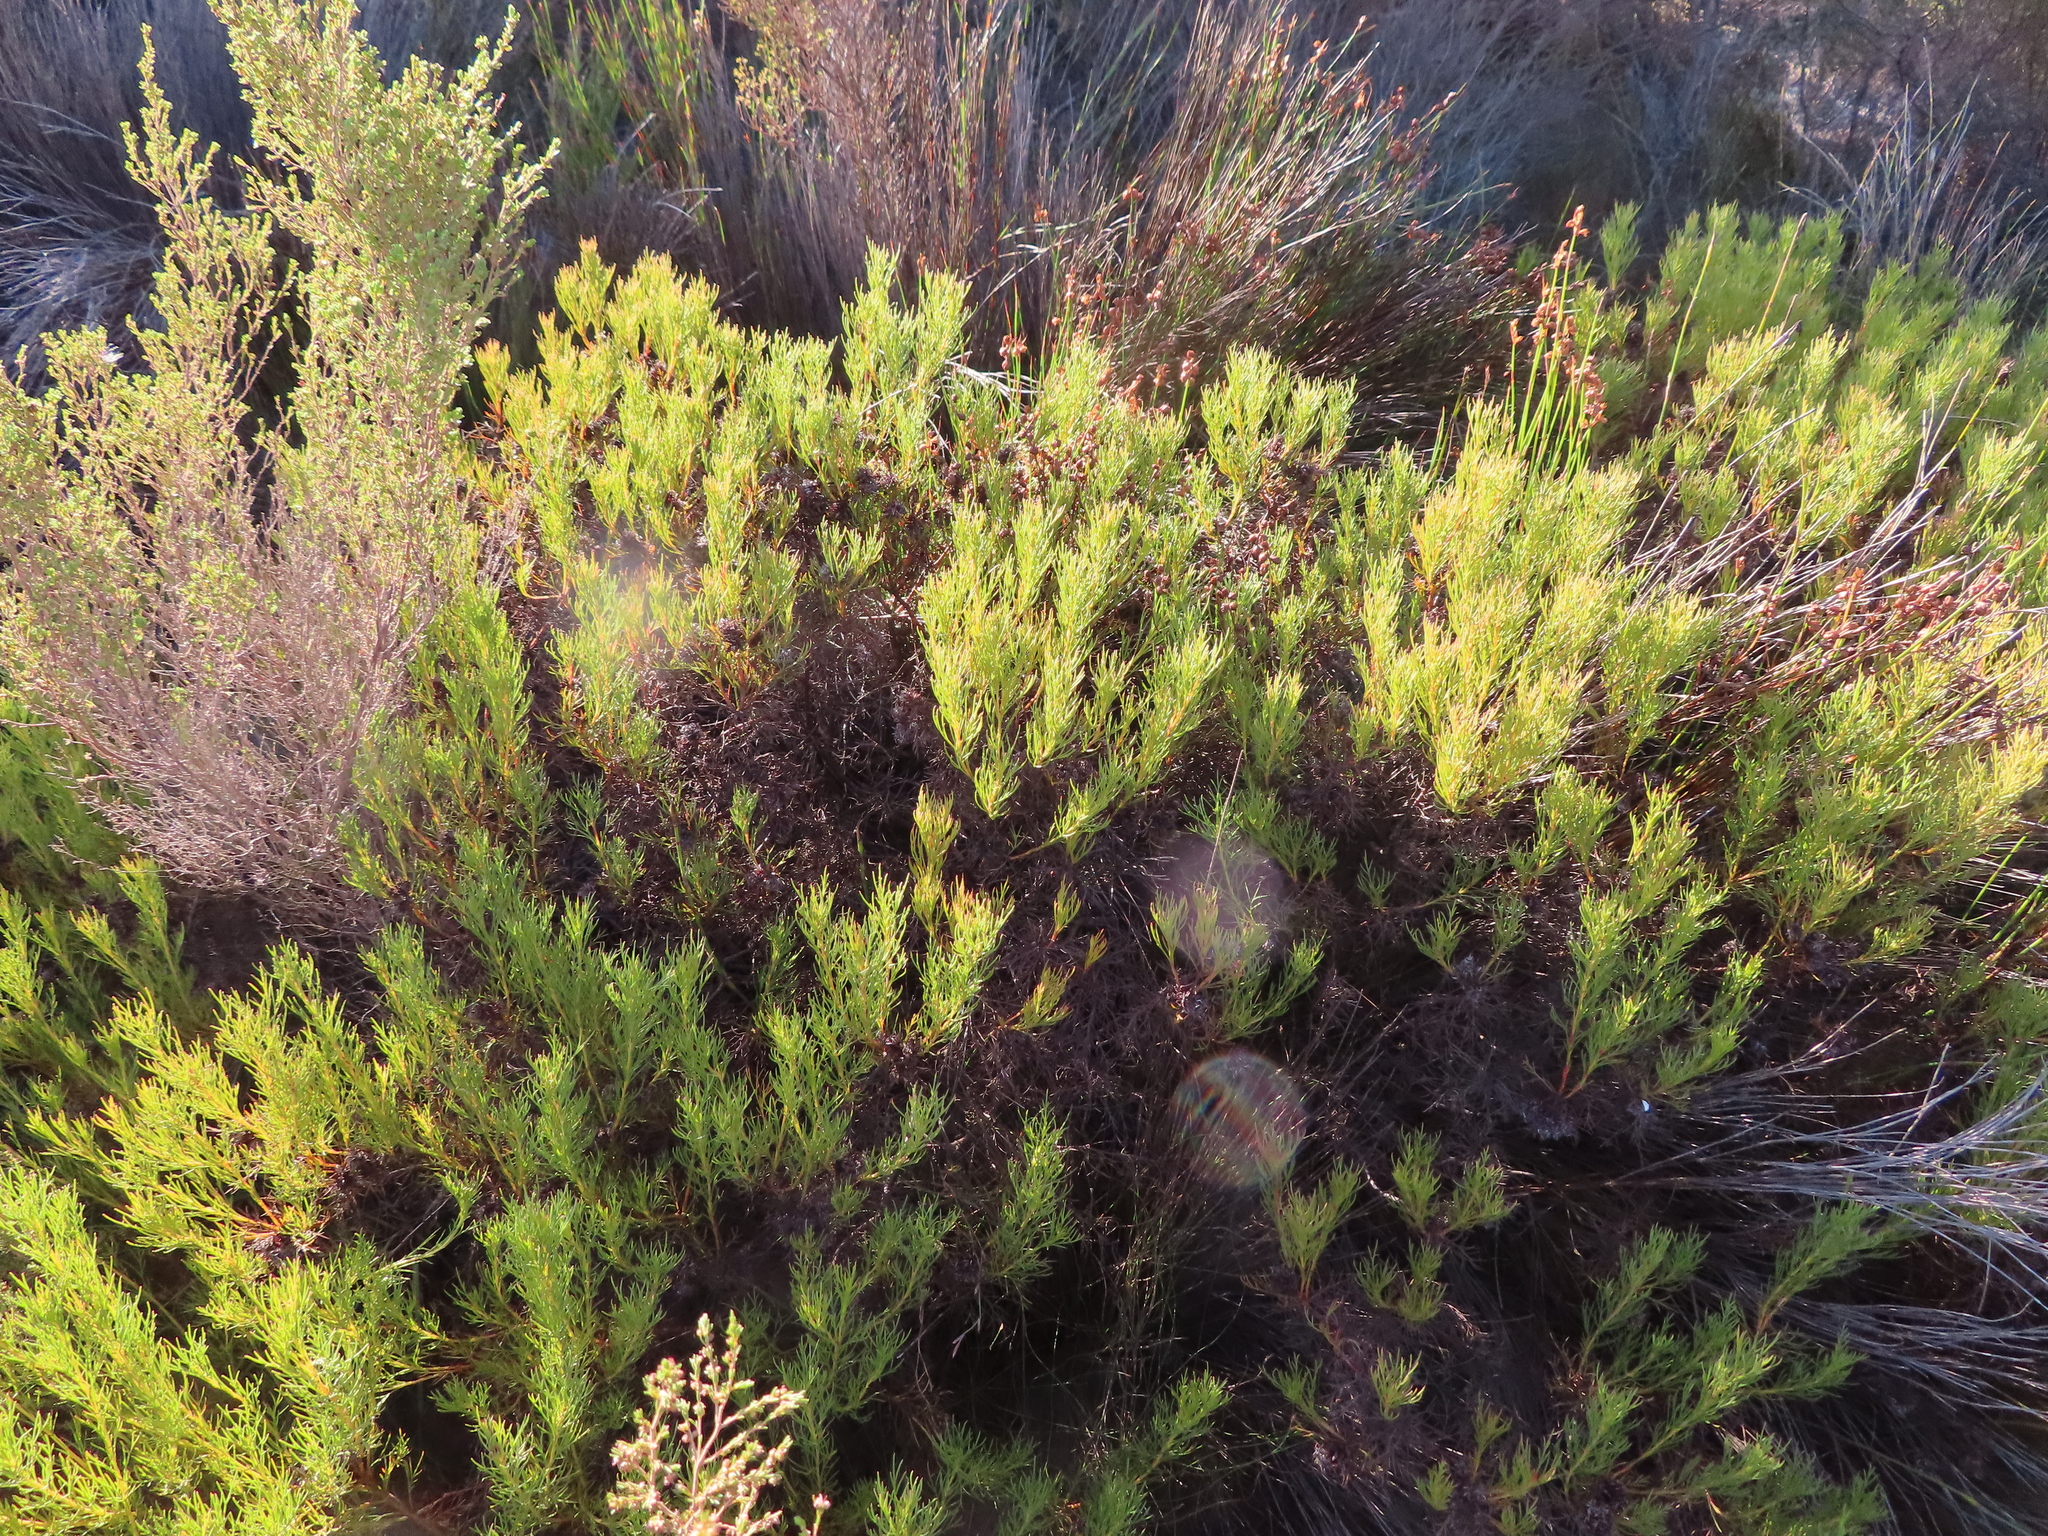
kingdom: Plantae
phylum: Tracheophyta
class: Magnoliopsida
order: Proteales
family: Proteaceae
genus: Serruria
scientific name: Serruria bolusii
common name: Agulhas spiderhead
